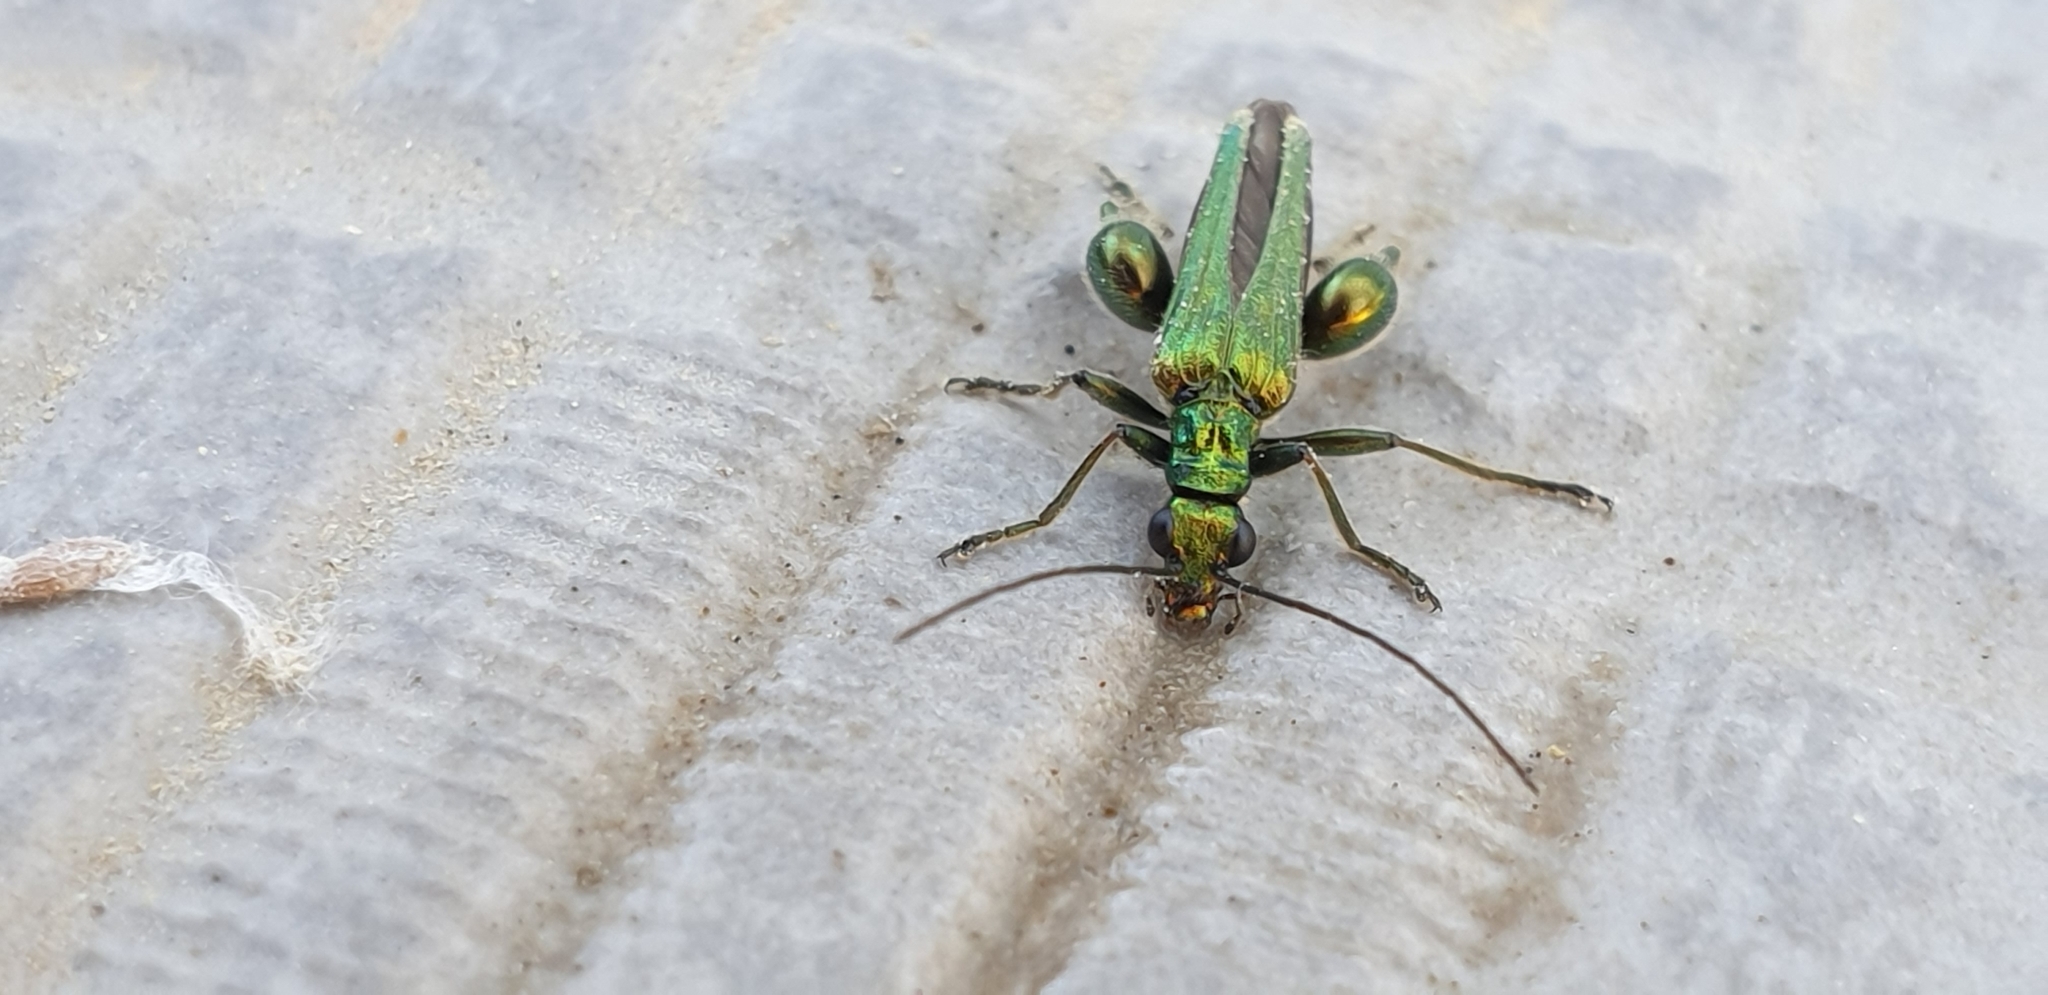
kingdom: Animalia
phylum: Arthropoda
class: Insecta
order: Coleoptera
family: Oedemeridae
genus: Oedemera
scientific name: Oedemera nobilis
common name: Swollen-thighed beetle
